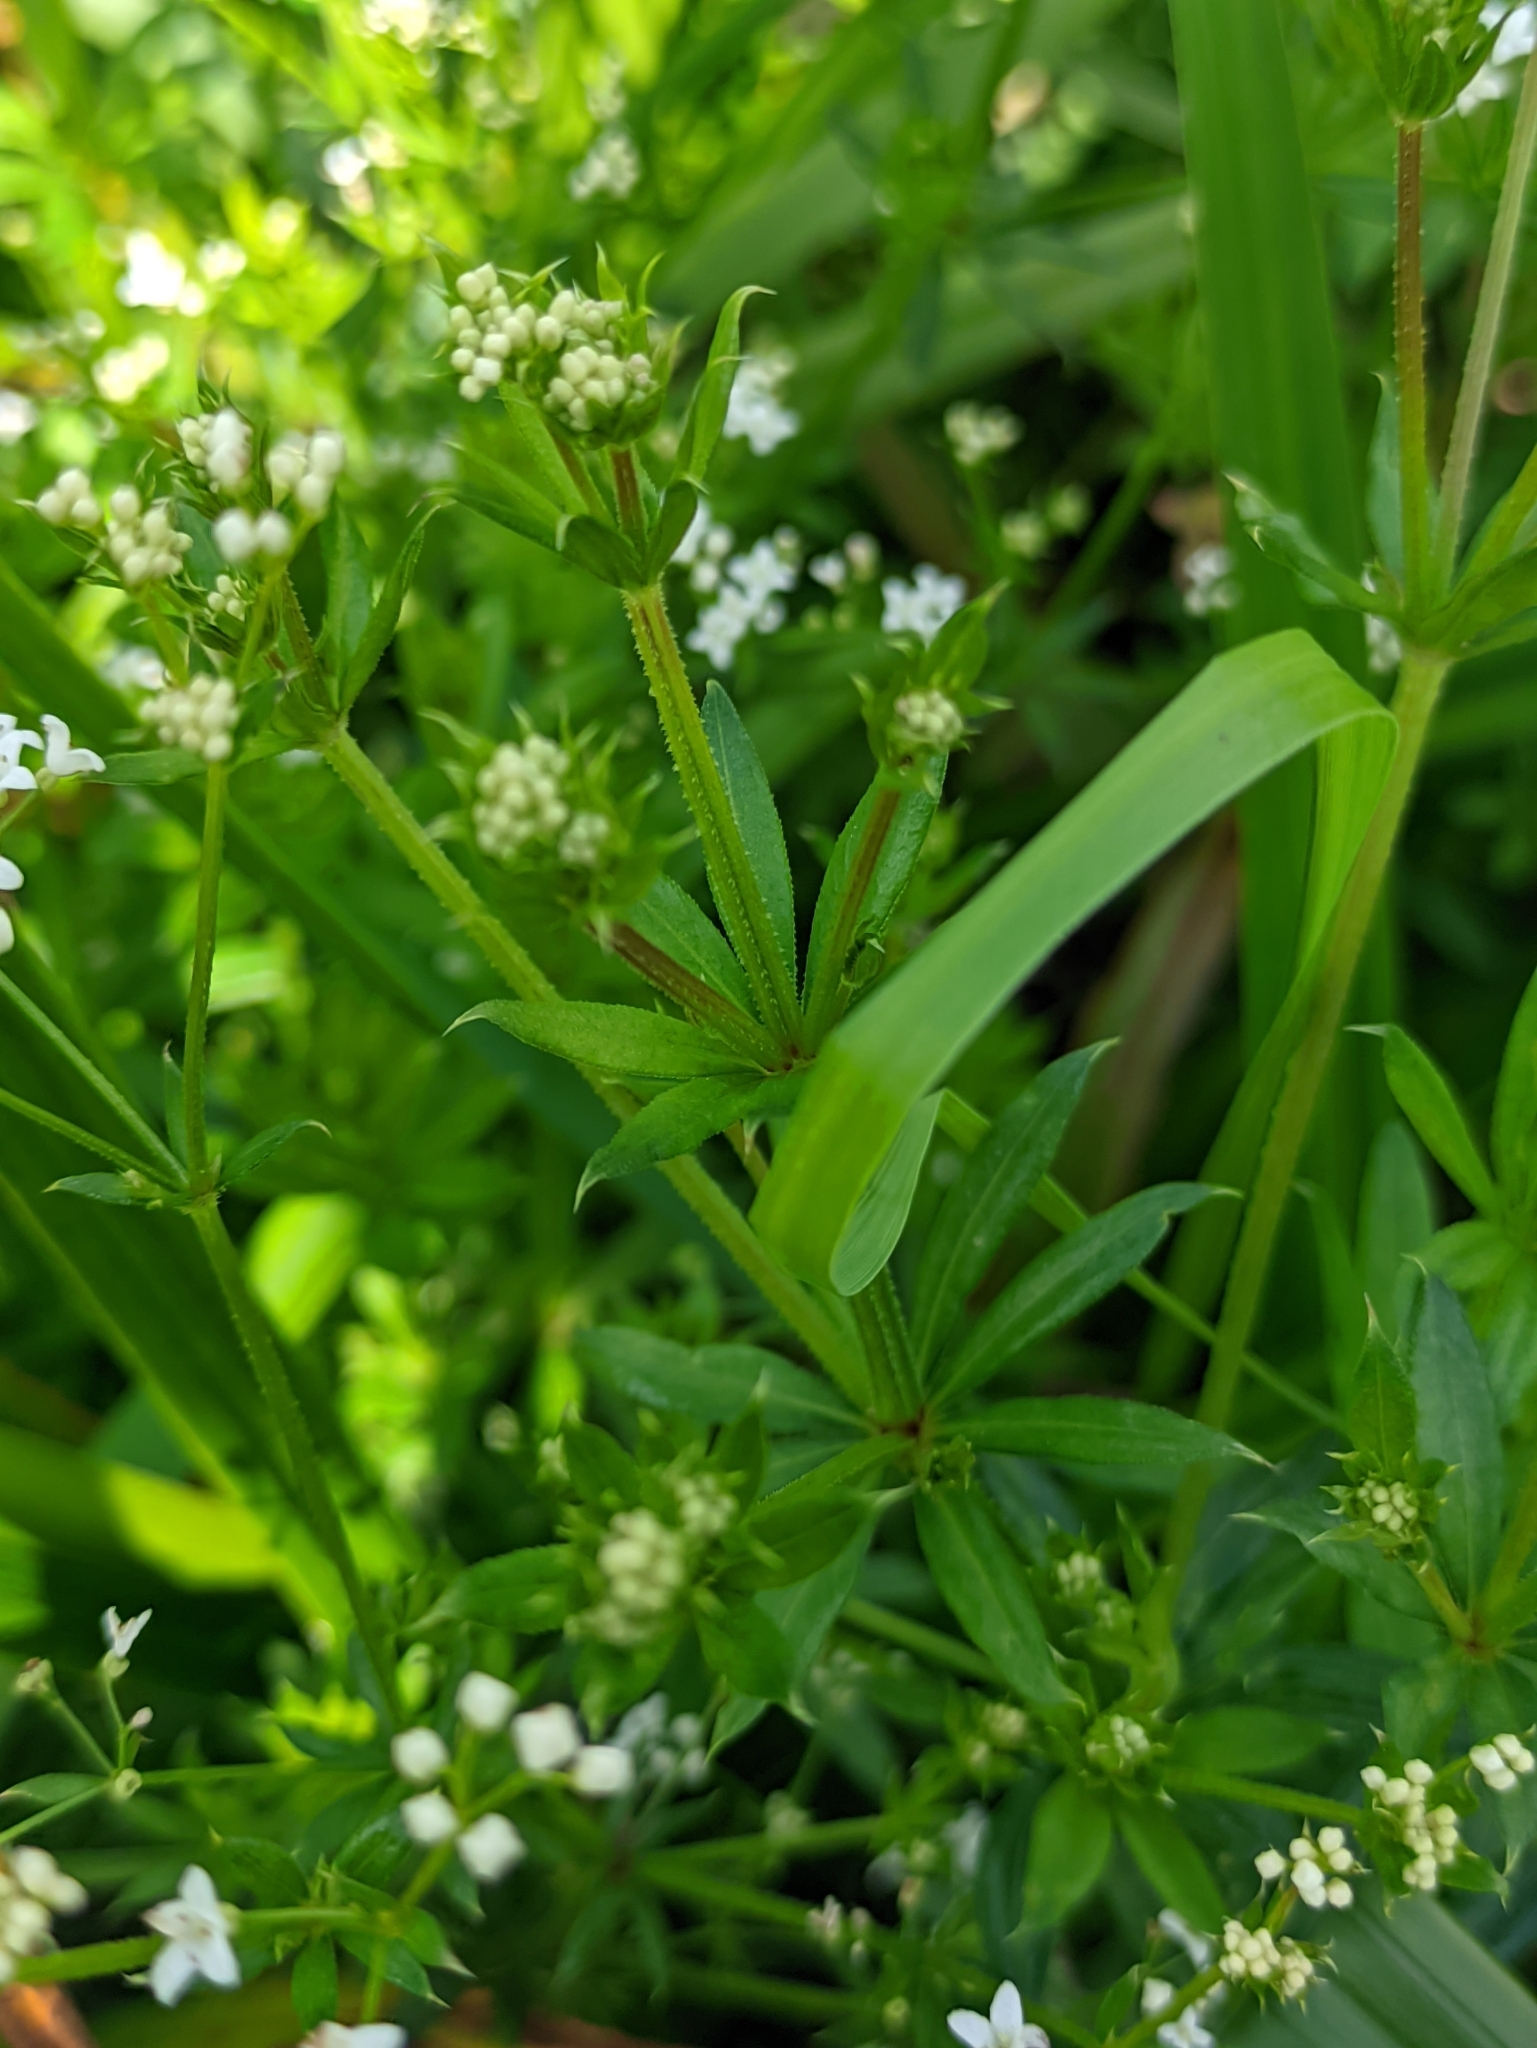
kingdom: Plantae
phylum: Tracheophyta
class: Magnoliopsida
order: Gentianales
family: Rubiaceae
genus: Galium
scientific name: Galium rivale
